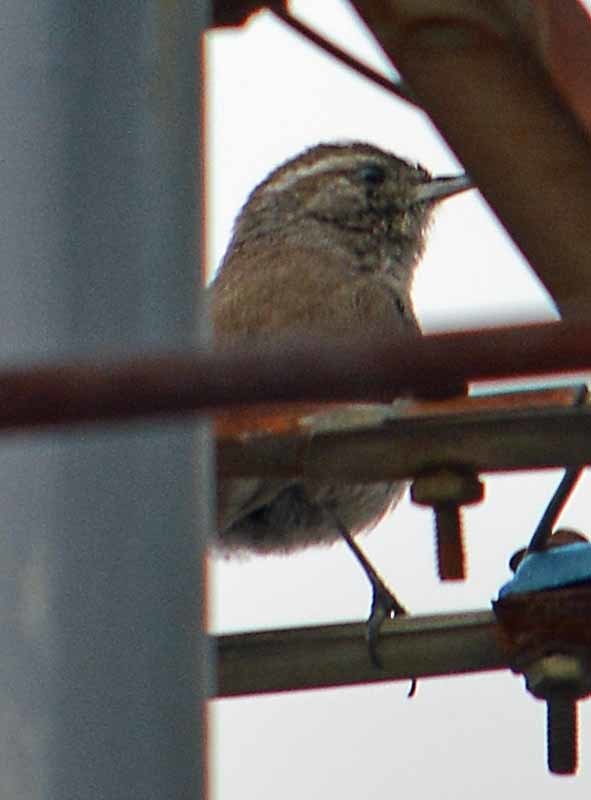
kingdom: Animalia
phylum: Chordata
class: Aves
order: Passeriformes
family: Troglodytidae
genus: Thryomanes
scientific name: Thryomanes bewickii
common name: Bewick's wren
